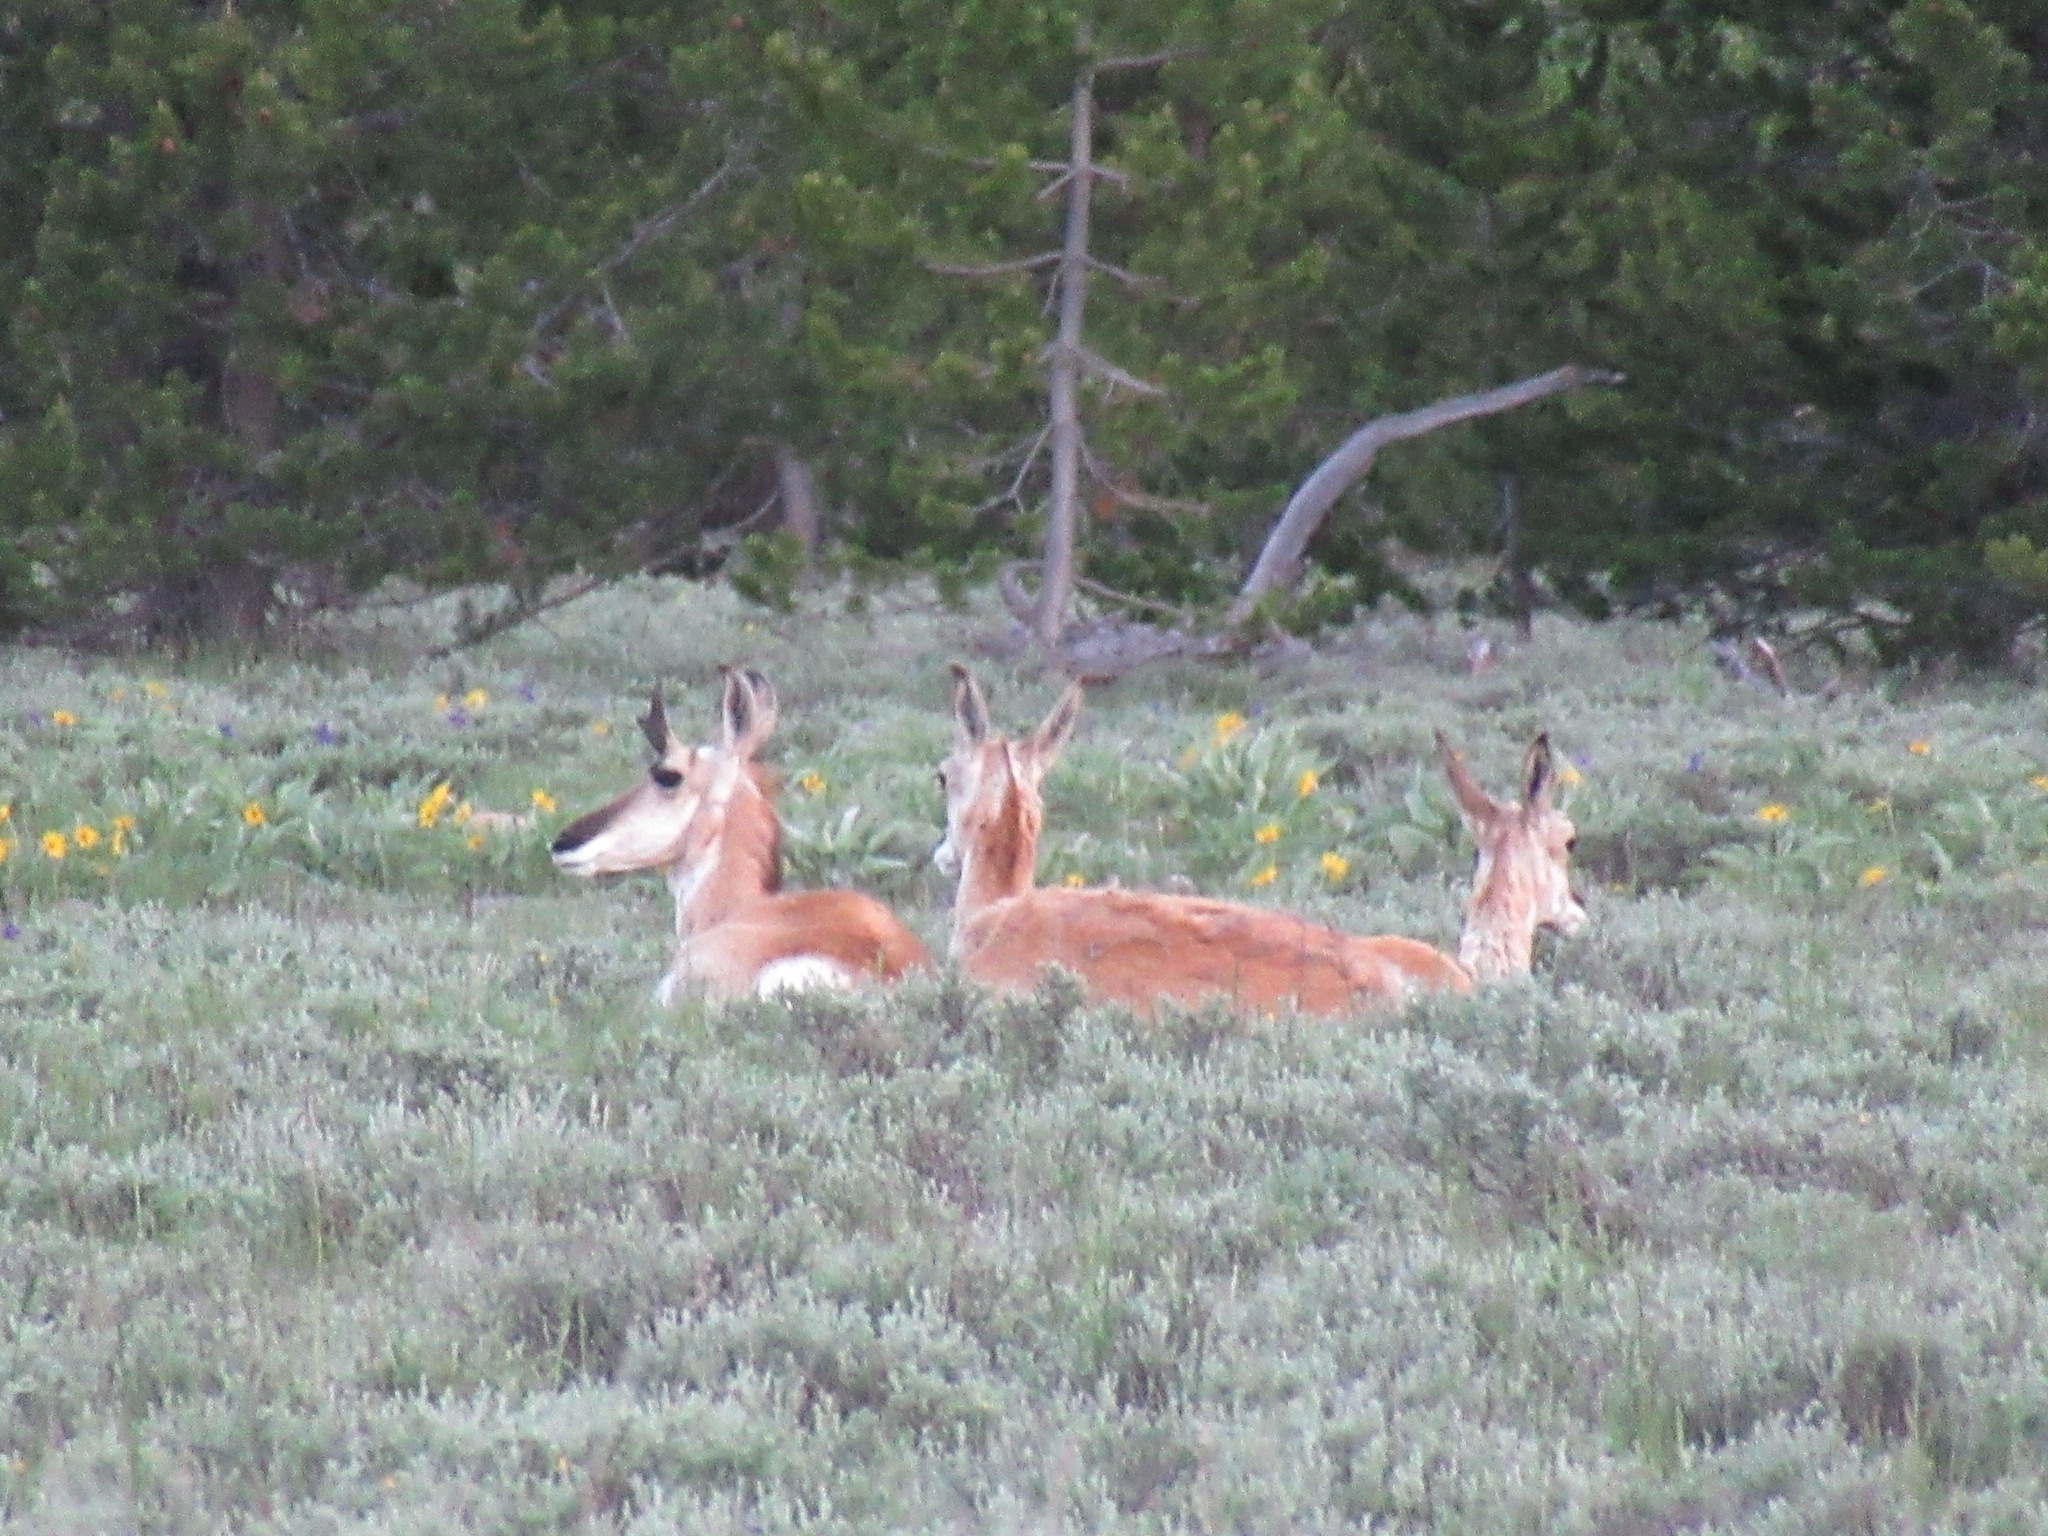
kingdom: Animalia
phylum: Chordata
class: Mammalia
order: Artiodactyla
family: Antilocapridae
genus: Antilocapra
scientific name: Antilocapra americana
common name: Pronghorn
